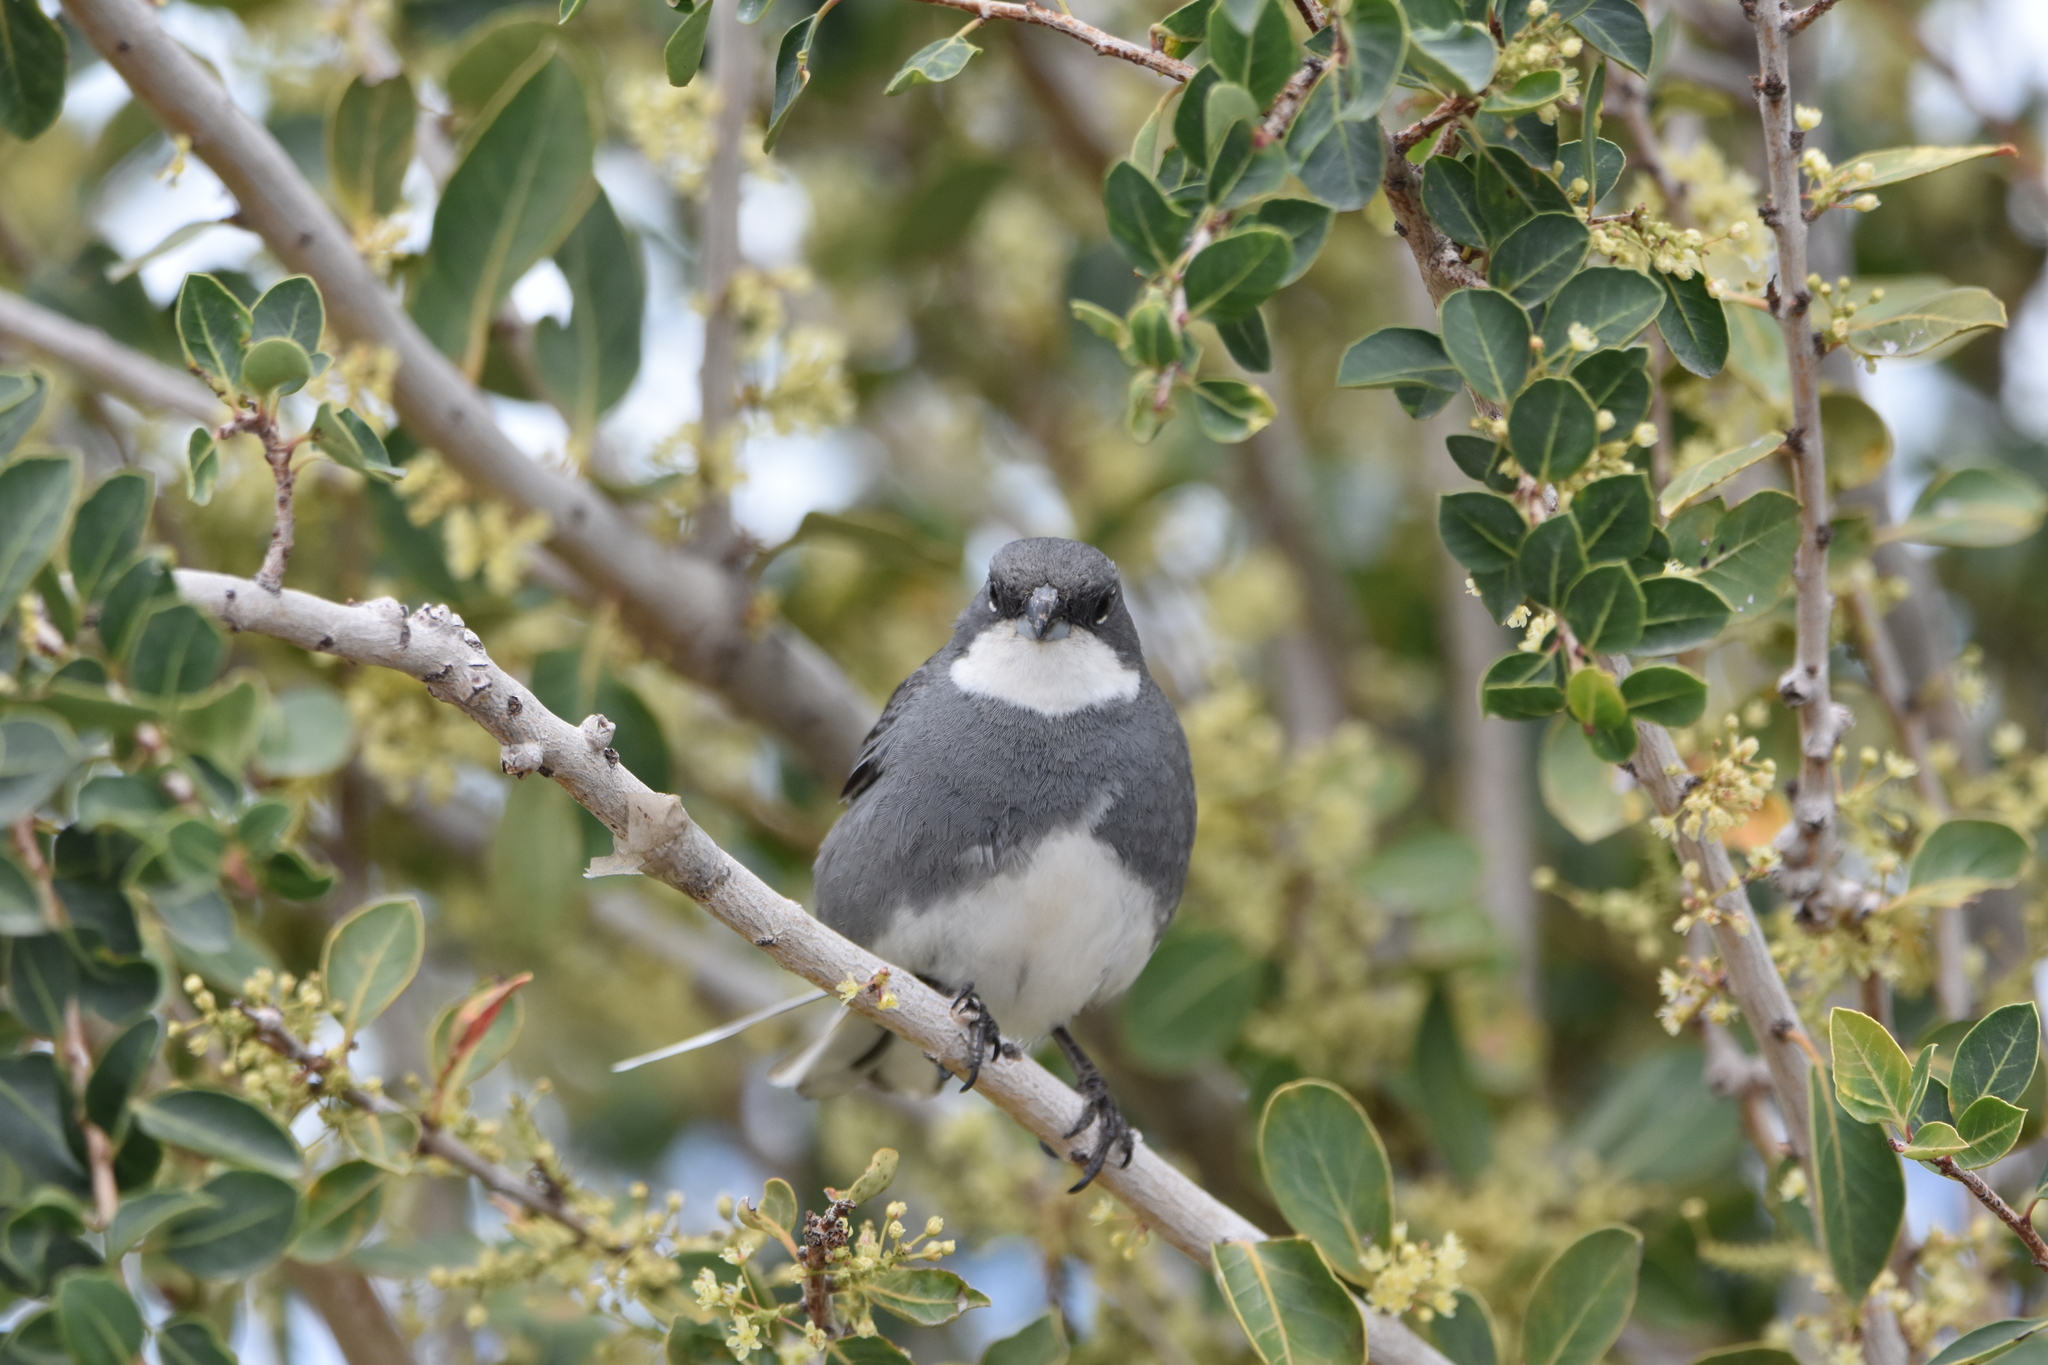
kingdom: Animalia
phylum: Chordata
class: Aves
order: Passeriformes
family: Thraupidae
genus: Diuca
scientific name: Diuca diuca
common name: Common diuca finch
